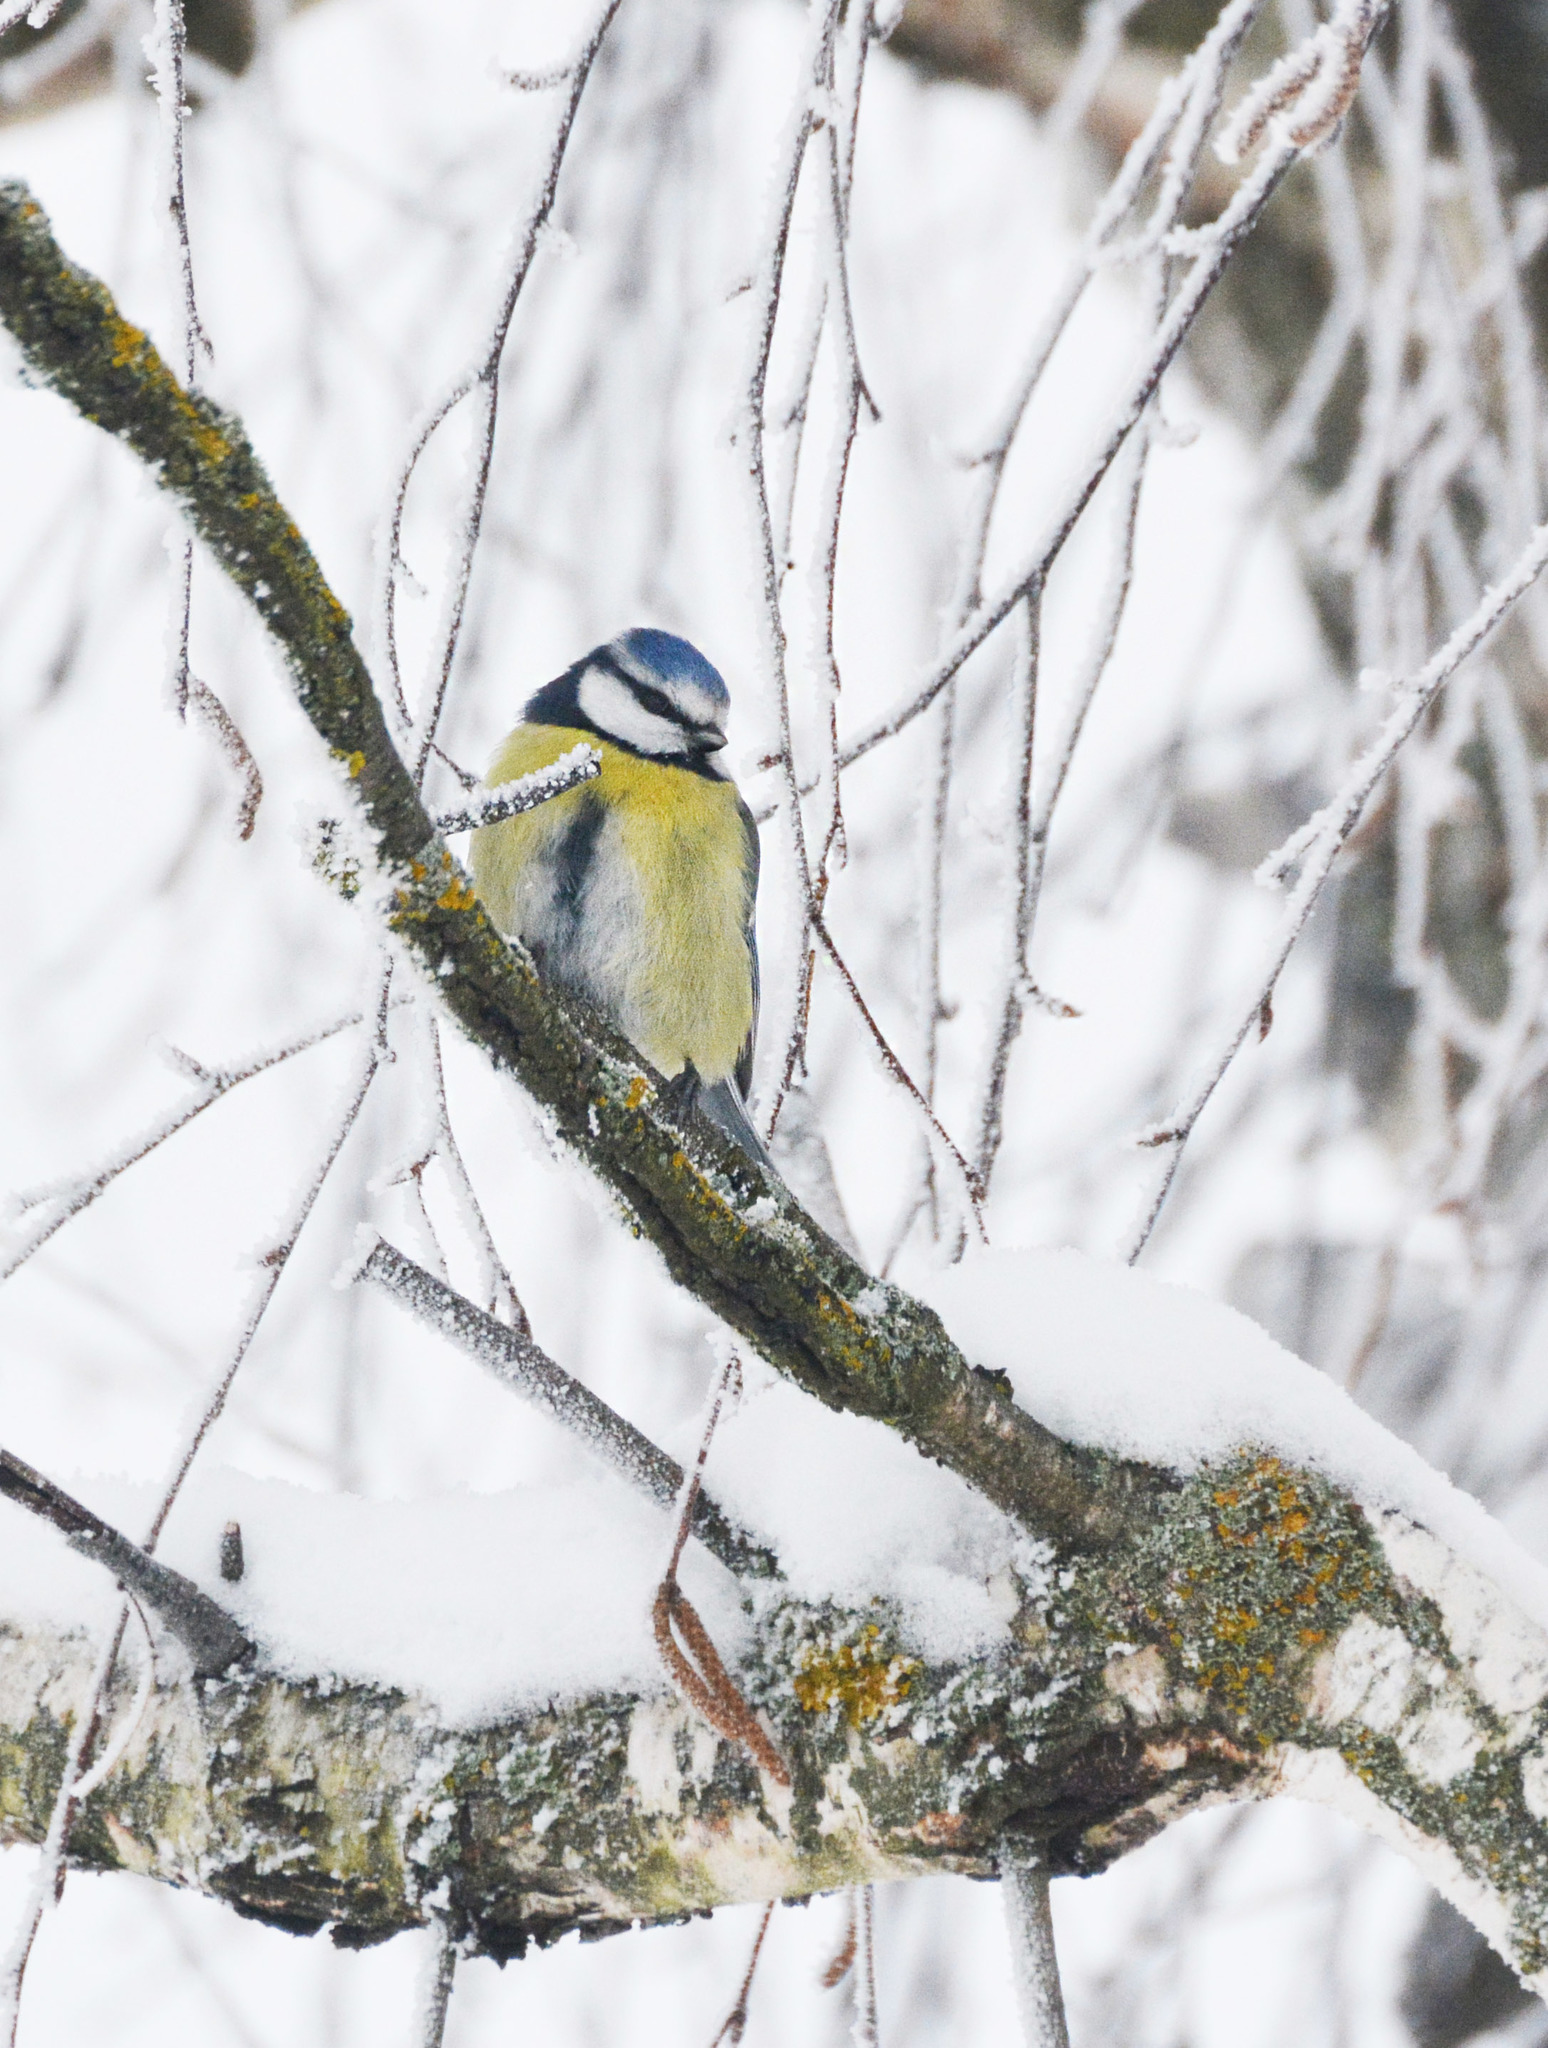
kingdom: Animalia
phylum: Chordata
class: Aves
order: Passeriformes
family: Paridae
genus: Cyanistes
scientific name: Cyanistes caeruleus
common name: Eurasian blue tit
